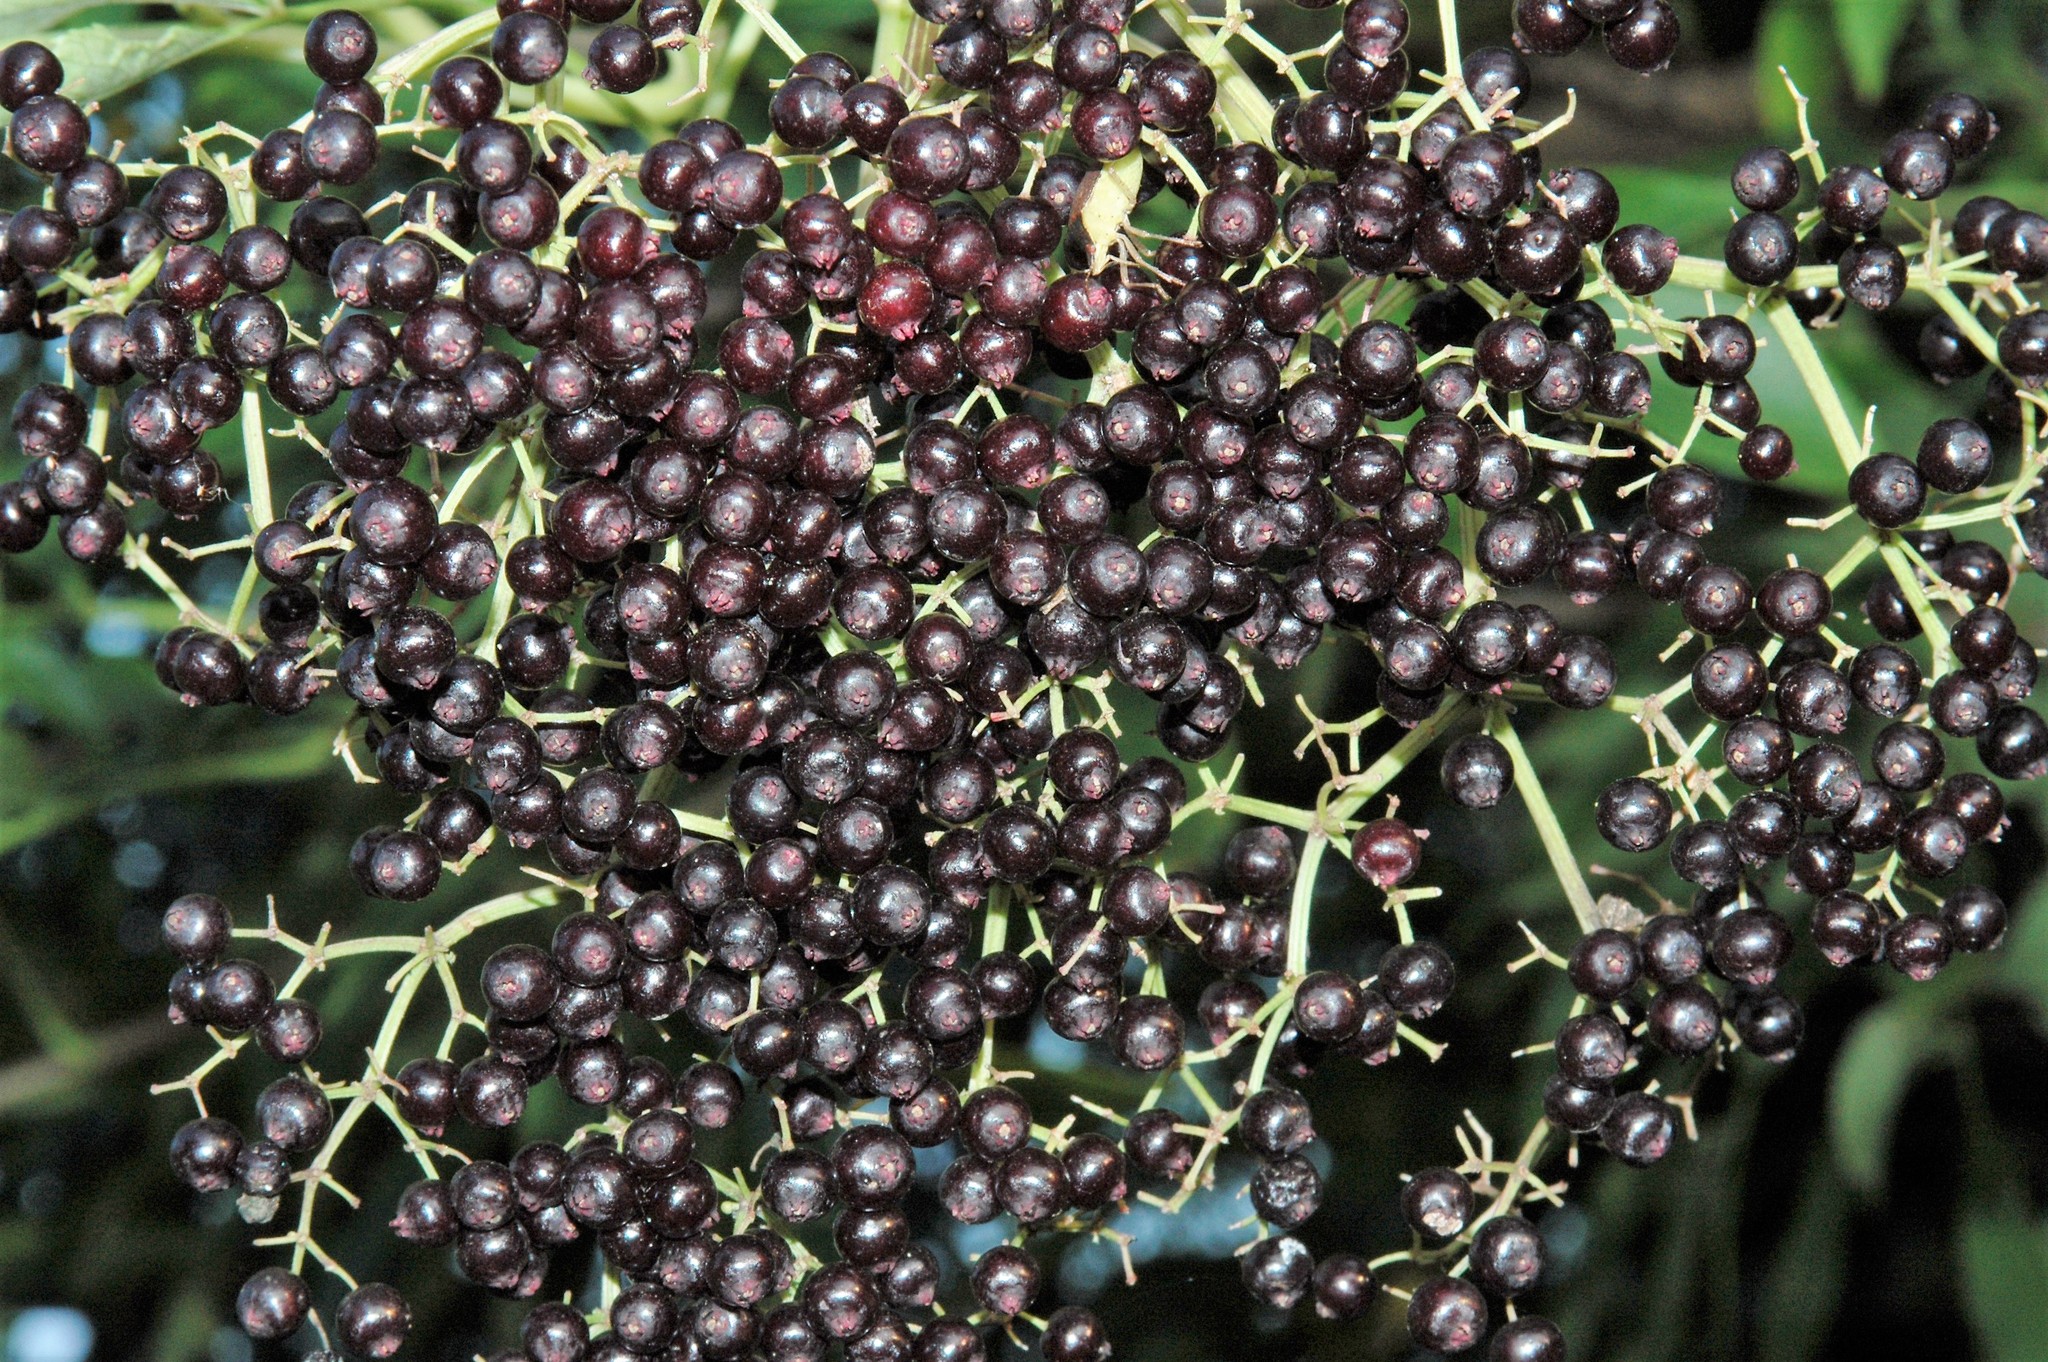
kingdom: Plantae
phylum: Tracheophyta
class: Magnoliopsida
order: Dipsacales
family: Viburnaceae
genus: Sambucus
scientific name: Sambucus canadensis
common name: American elder
